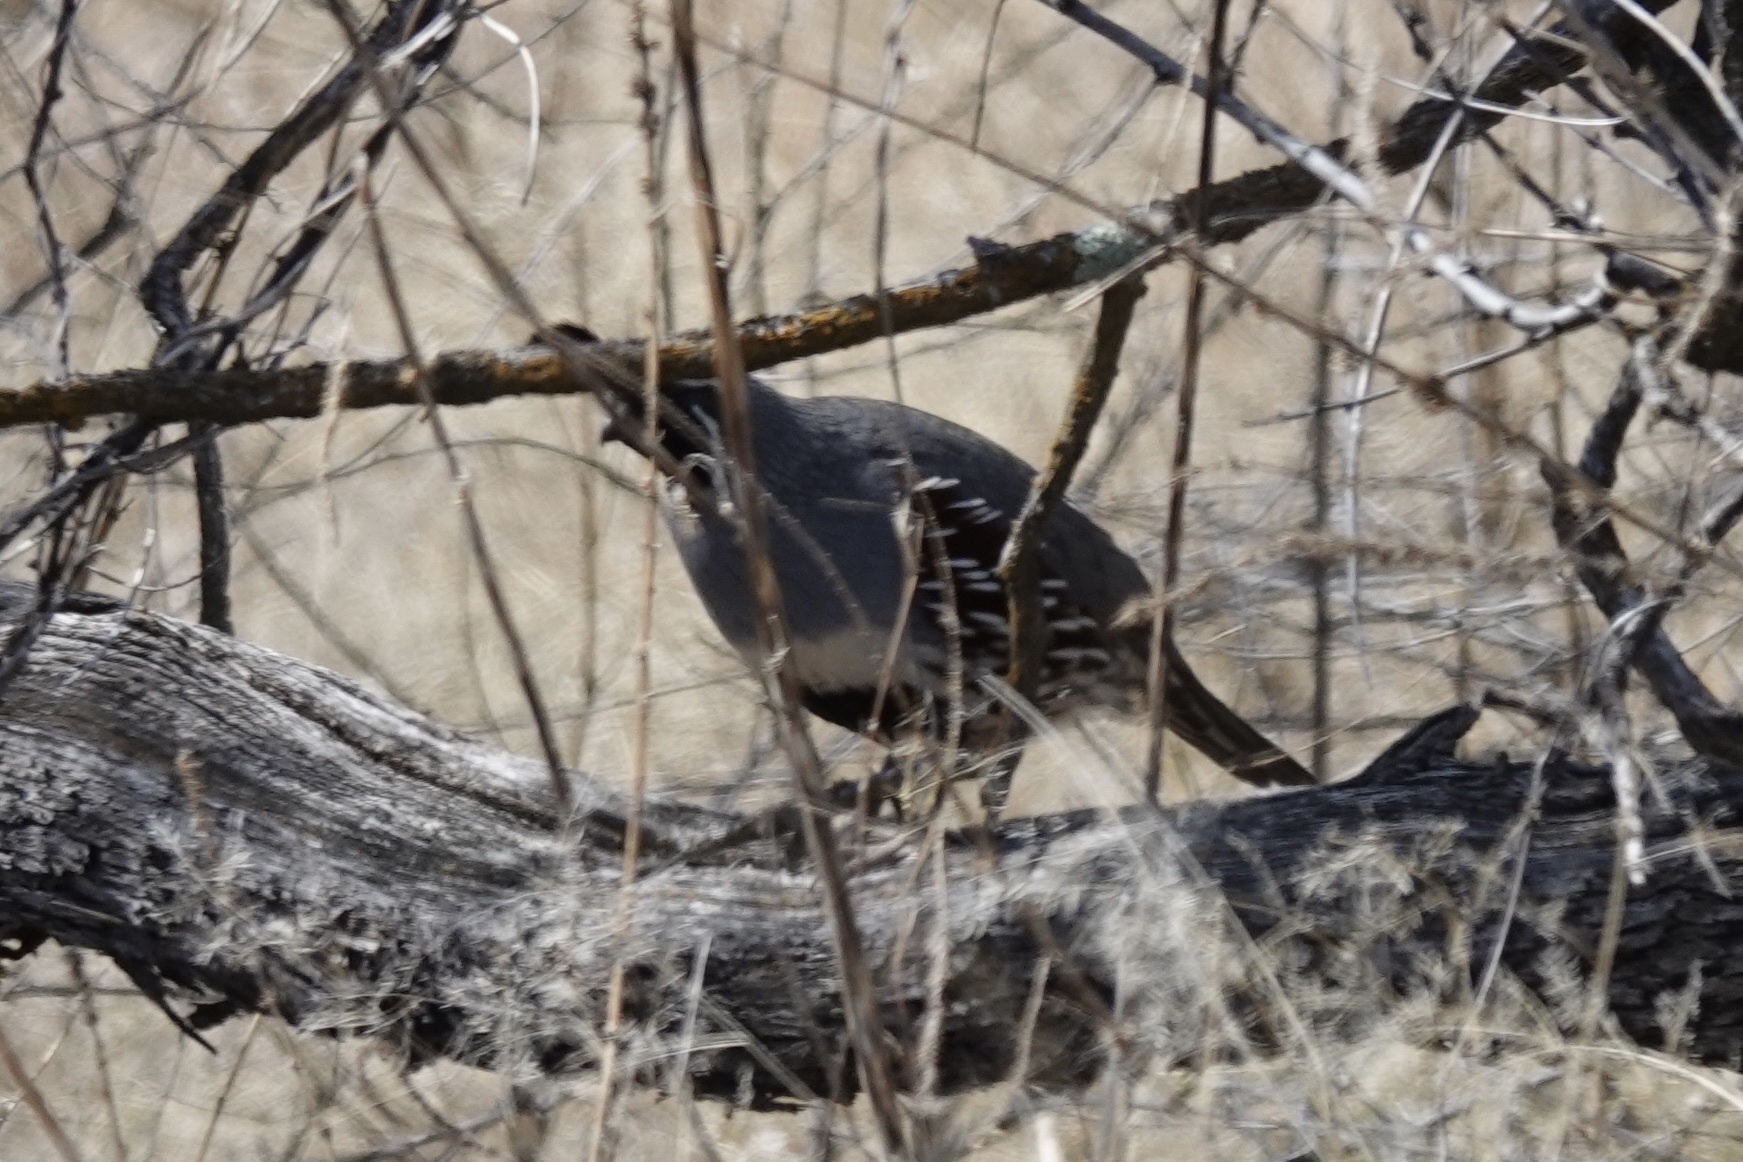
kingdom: Animalia
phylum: Chordata
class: Aves
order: Galliformes
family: Odontophoridae
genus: Callipepla
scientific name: Callipepla gambelii
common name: Gambel's quail
